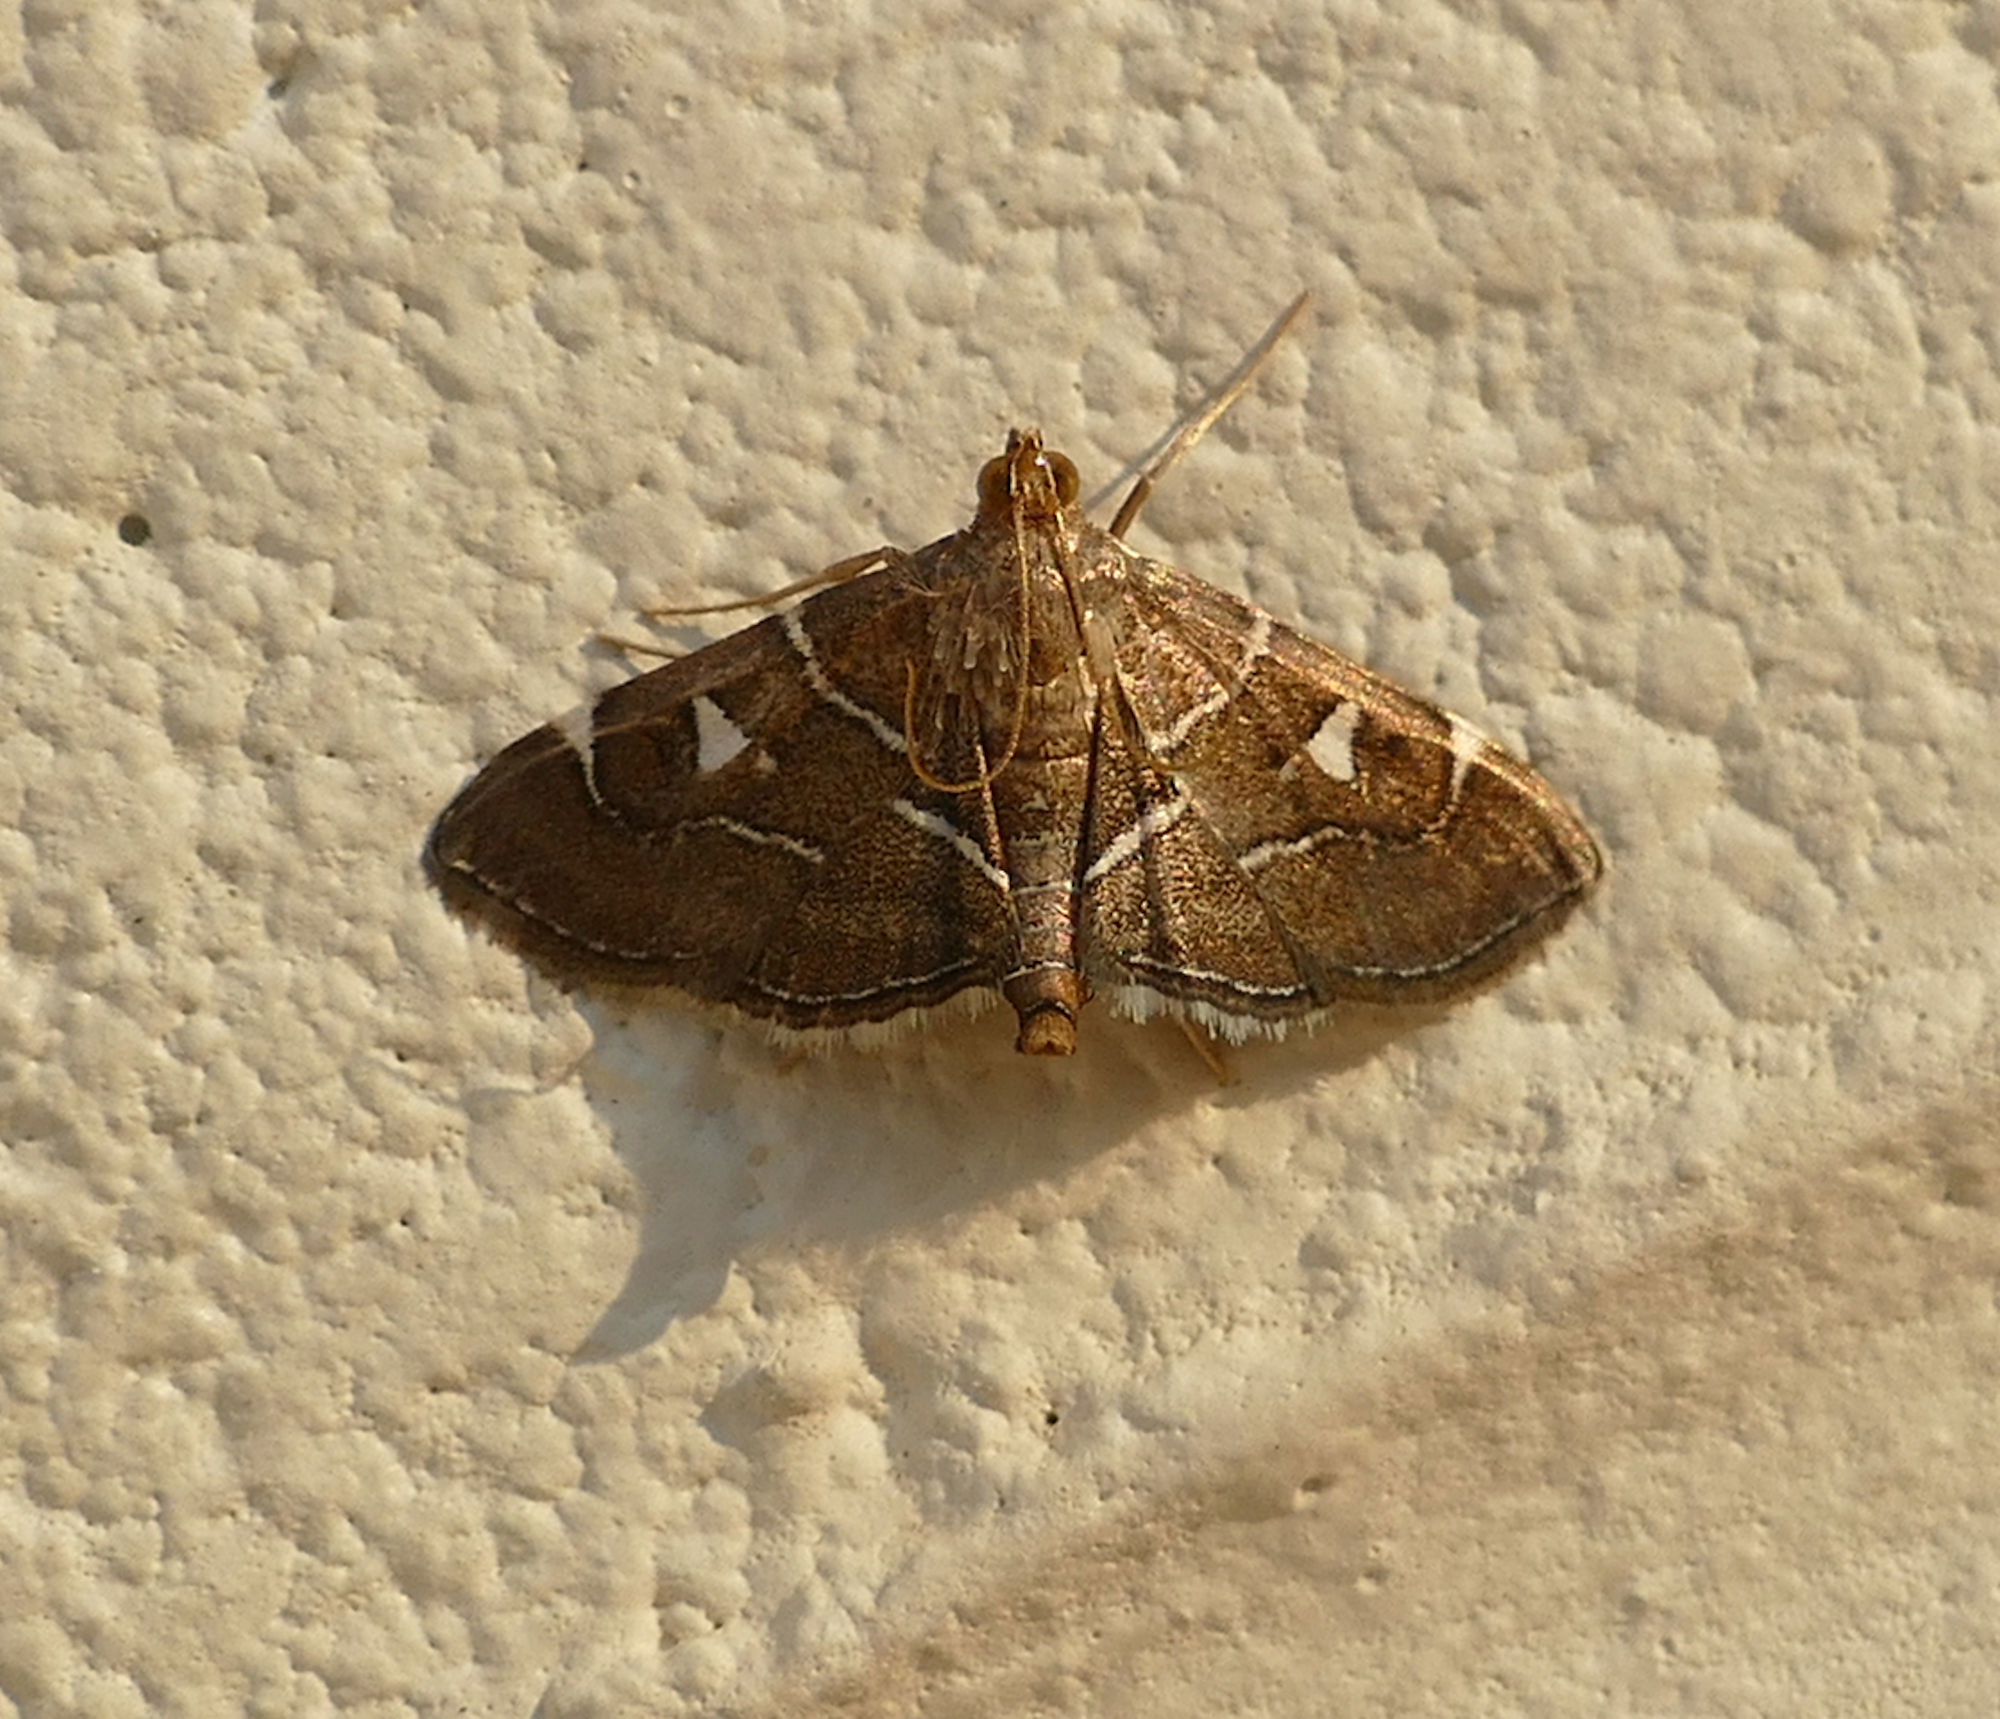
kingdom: Animalia
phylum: Arthropoda
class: Insecta
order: Lepidoptera
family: Crambidae
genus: Lamprosema
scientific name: Lamprosema victoriae
